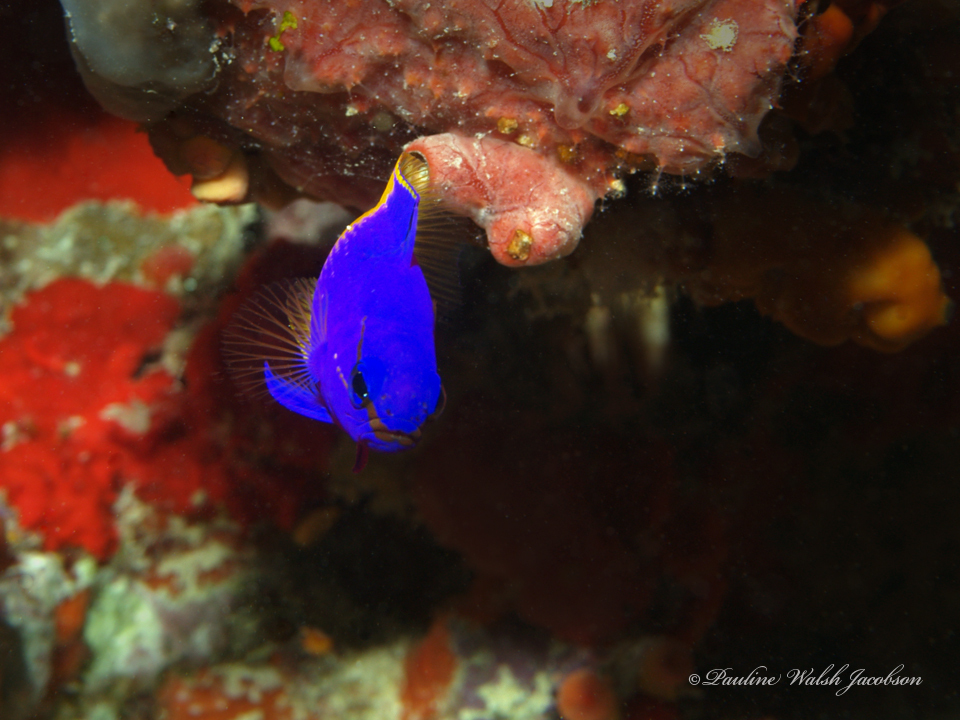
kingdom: Animalia
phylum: Chordata
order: Perciformes
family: Grammatidae
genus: Gramma
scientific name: Gramma loreto
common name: Fairy basslet
